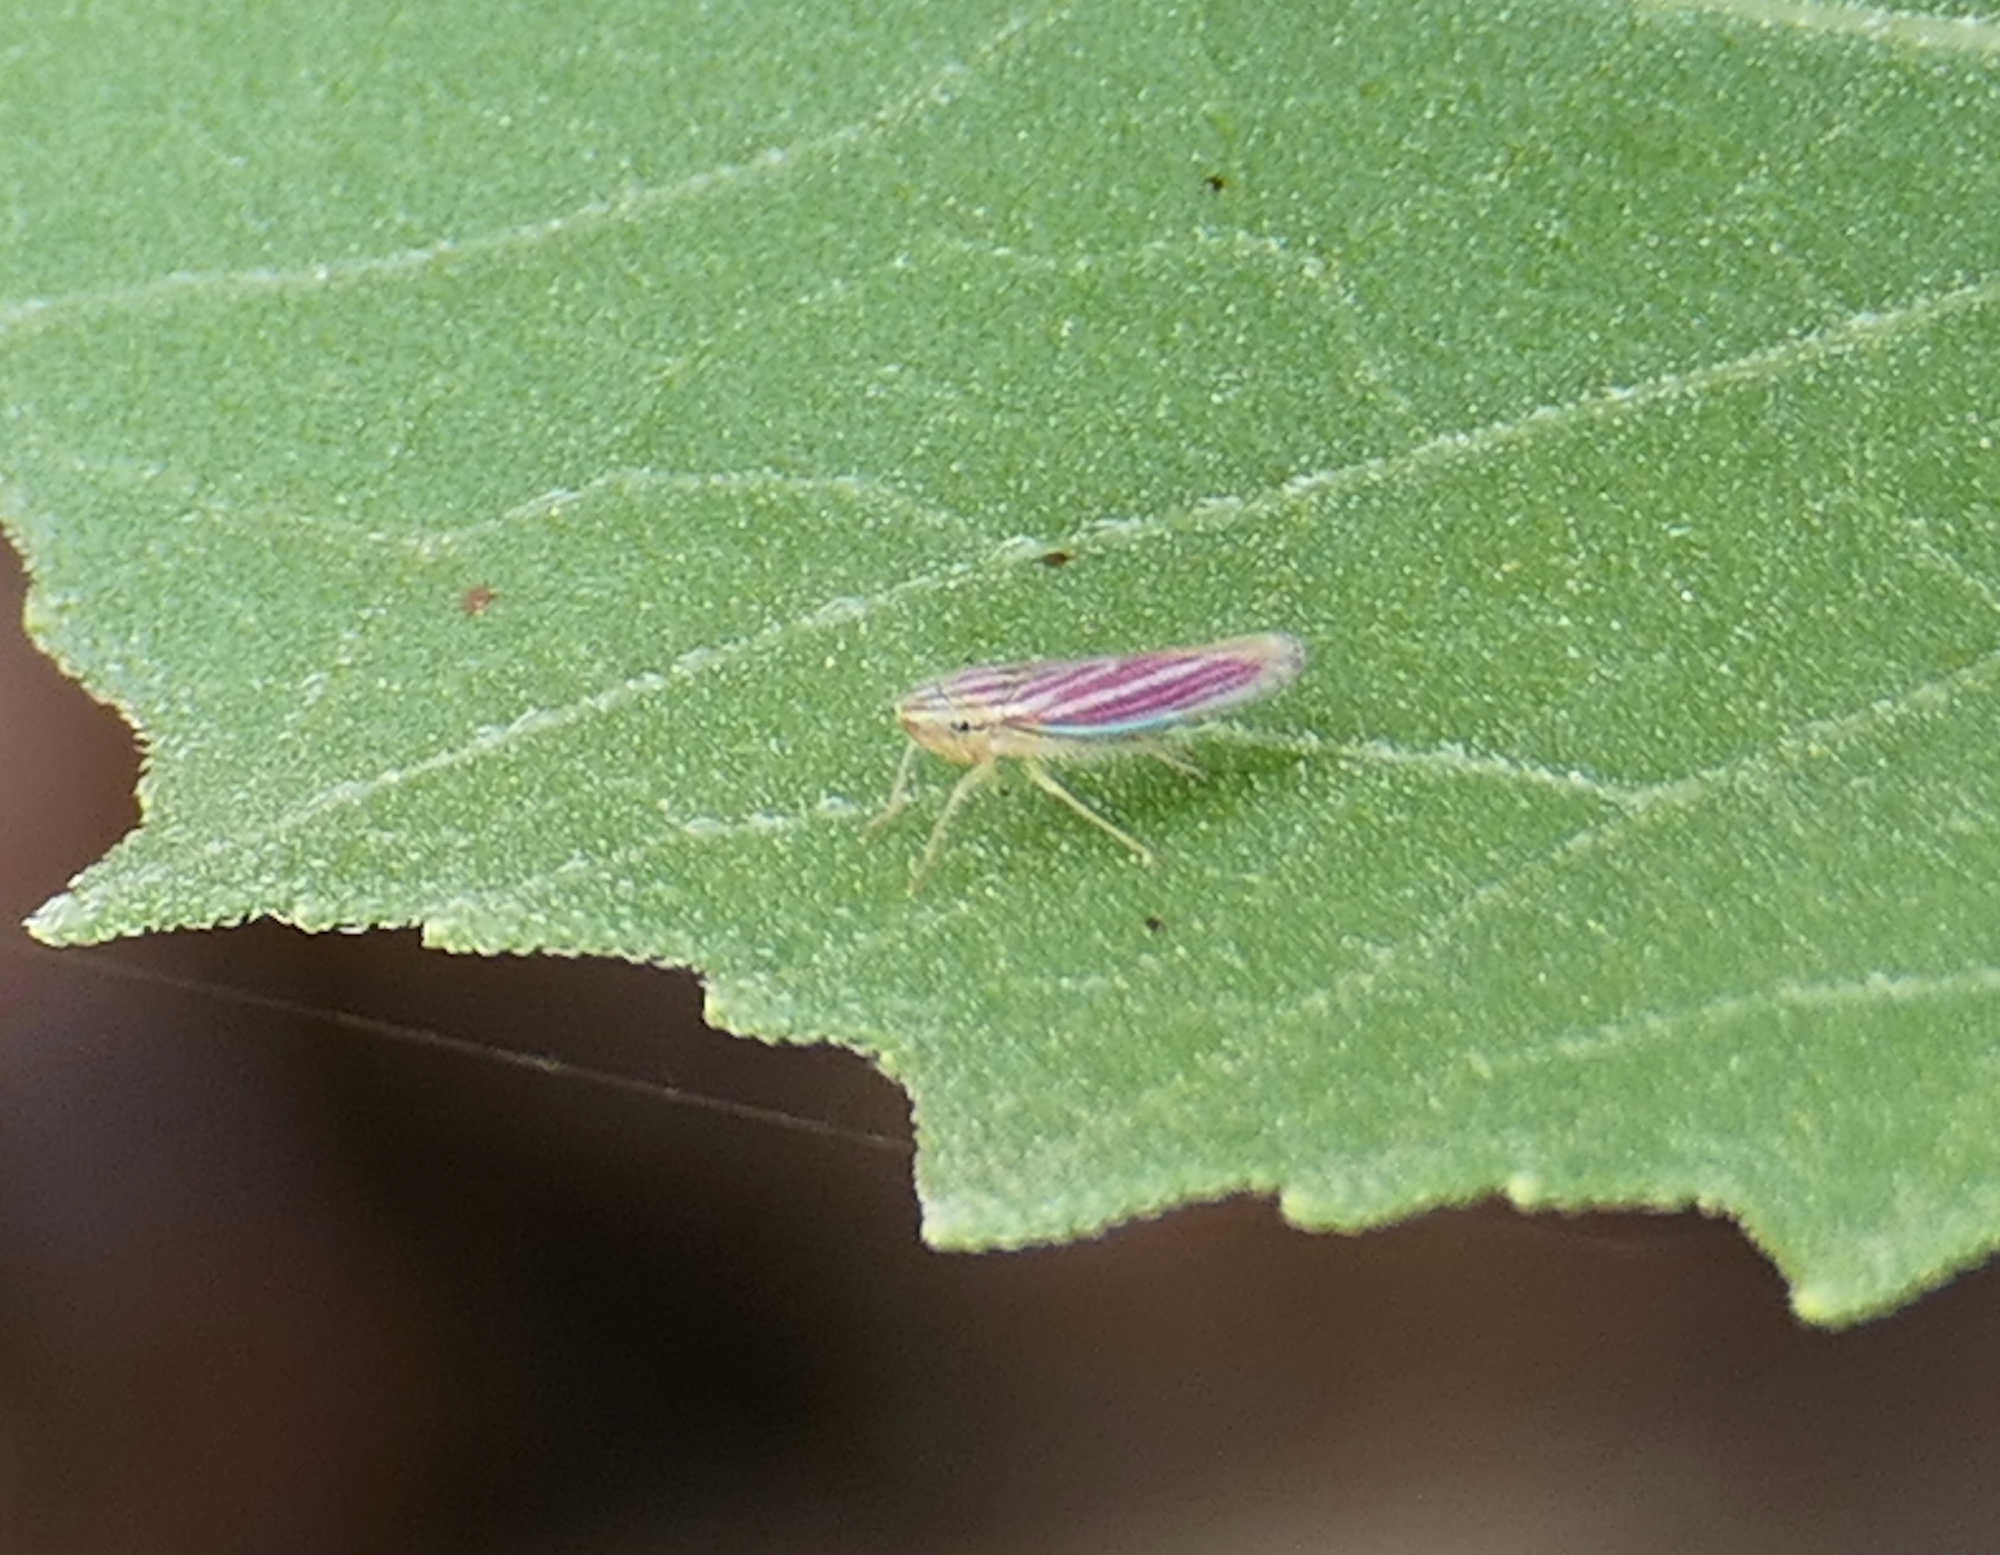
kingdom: Animalia
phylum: Arthropoda
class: Insecta
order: Hemiptera
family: Cicadellidae
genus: Sibovia
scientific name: Sibovia compta
